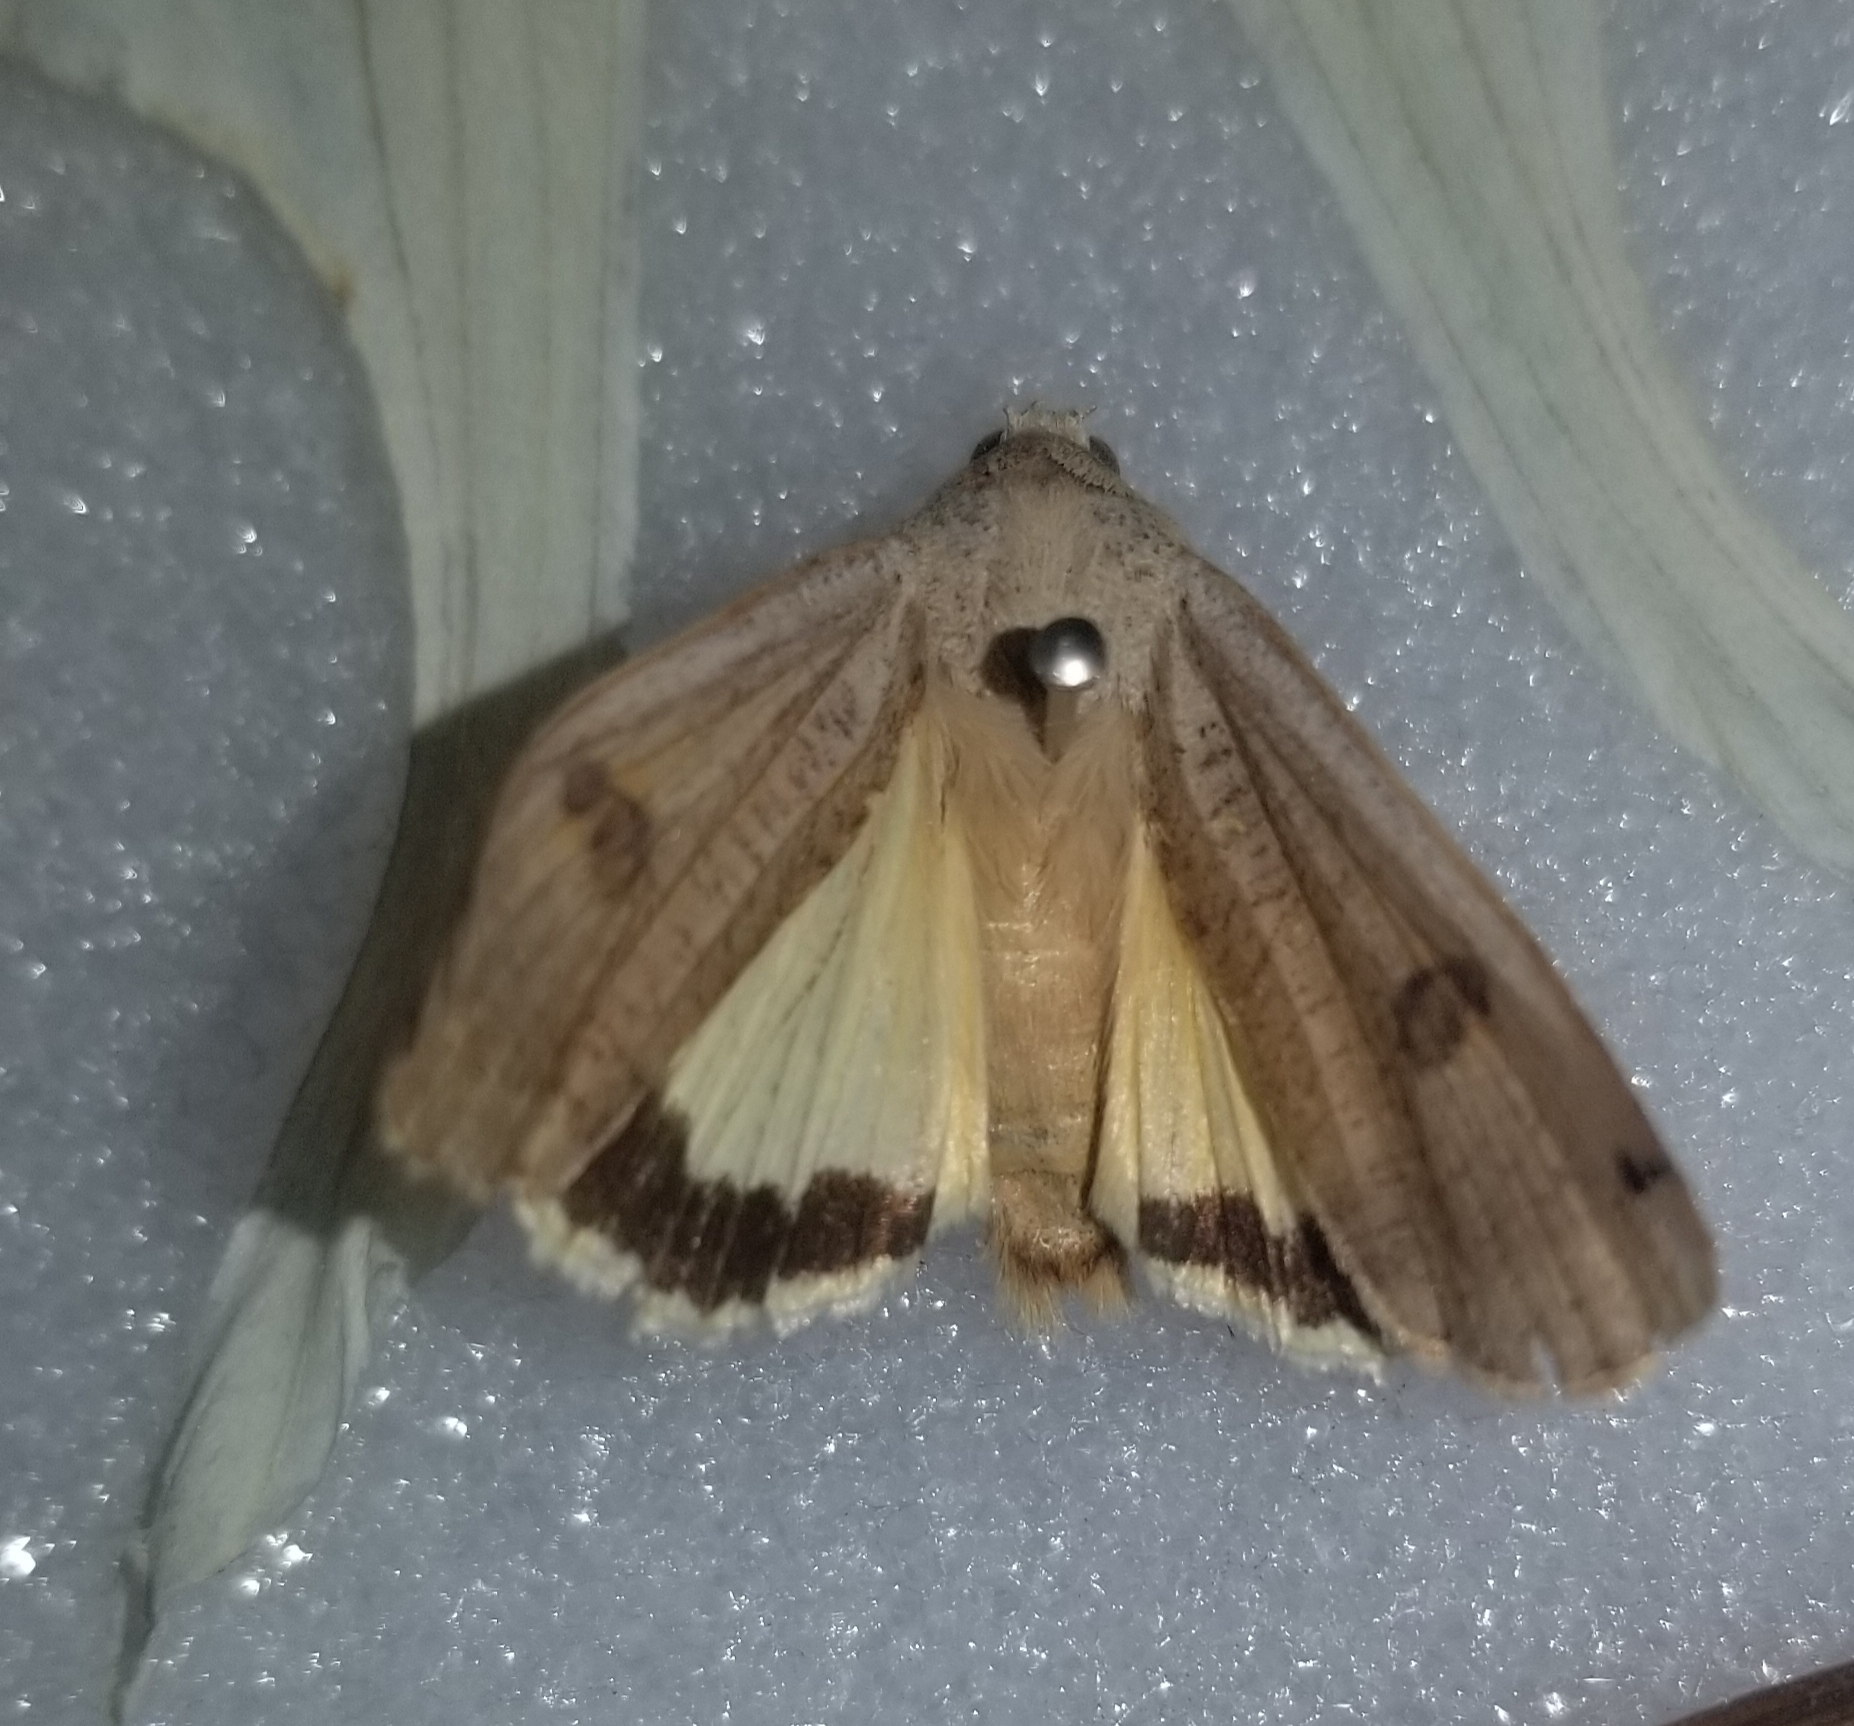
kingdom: Animalia
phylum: Arthropoda
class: Insecta
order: Lepidoptera
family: Noctuidae
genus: Noctua
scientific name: Noctua pronuba
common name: Large yellow underwing
